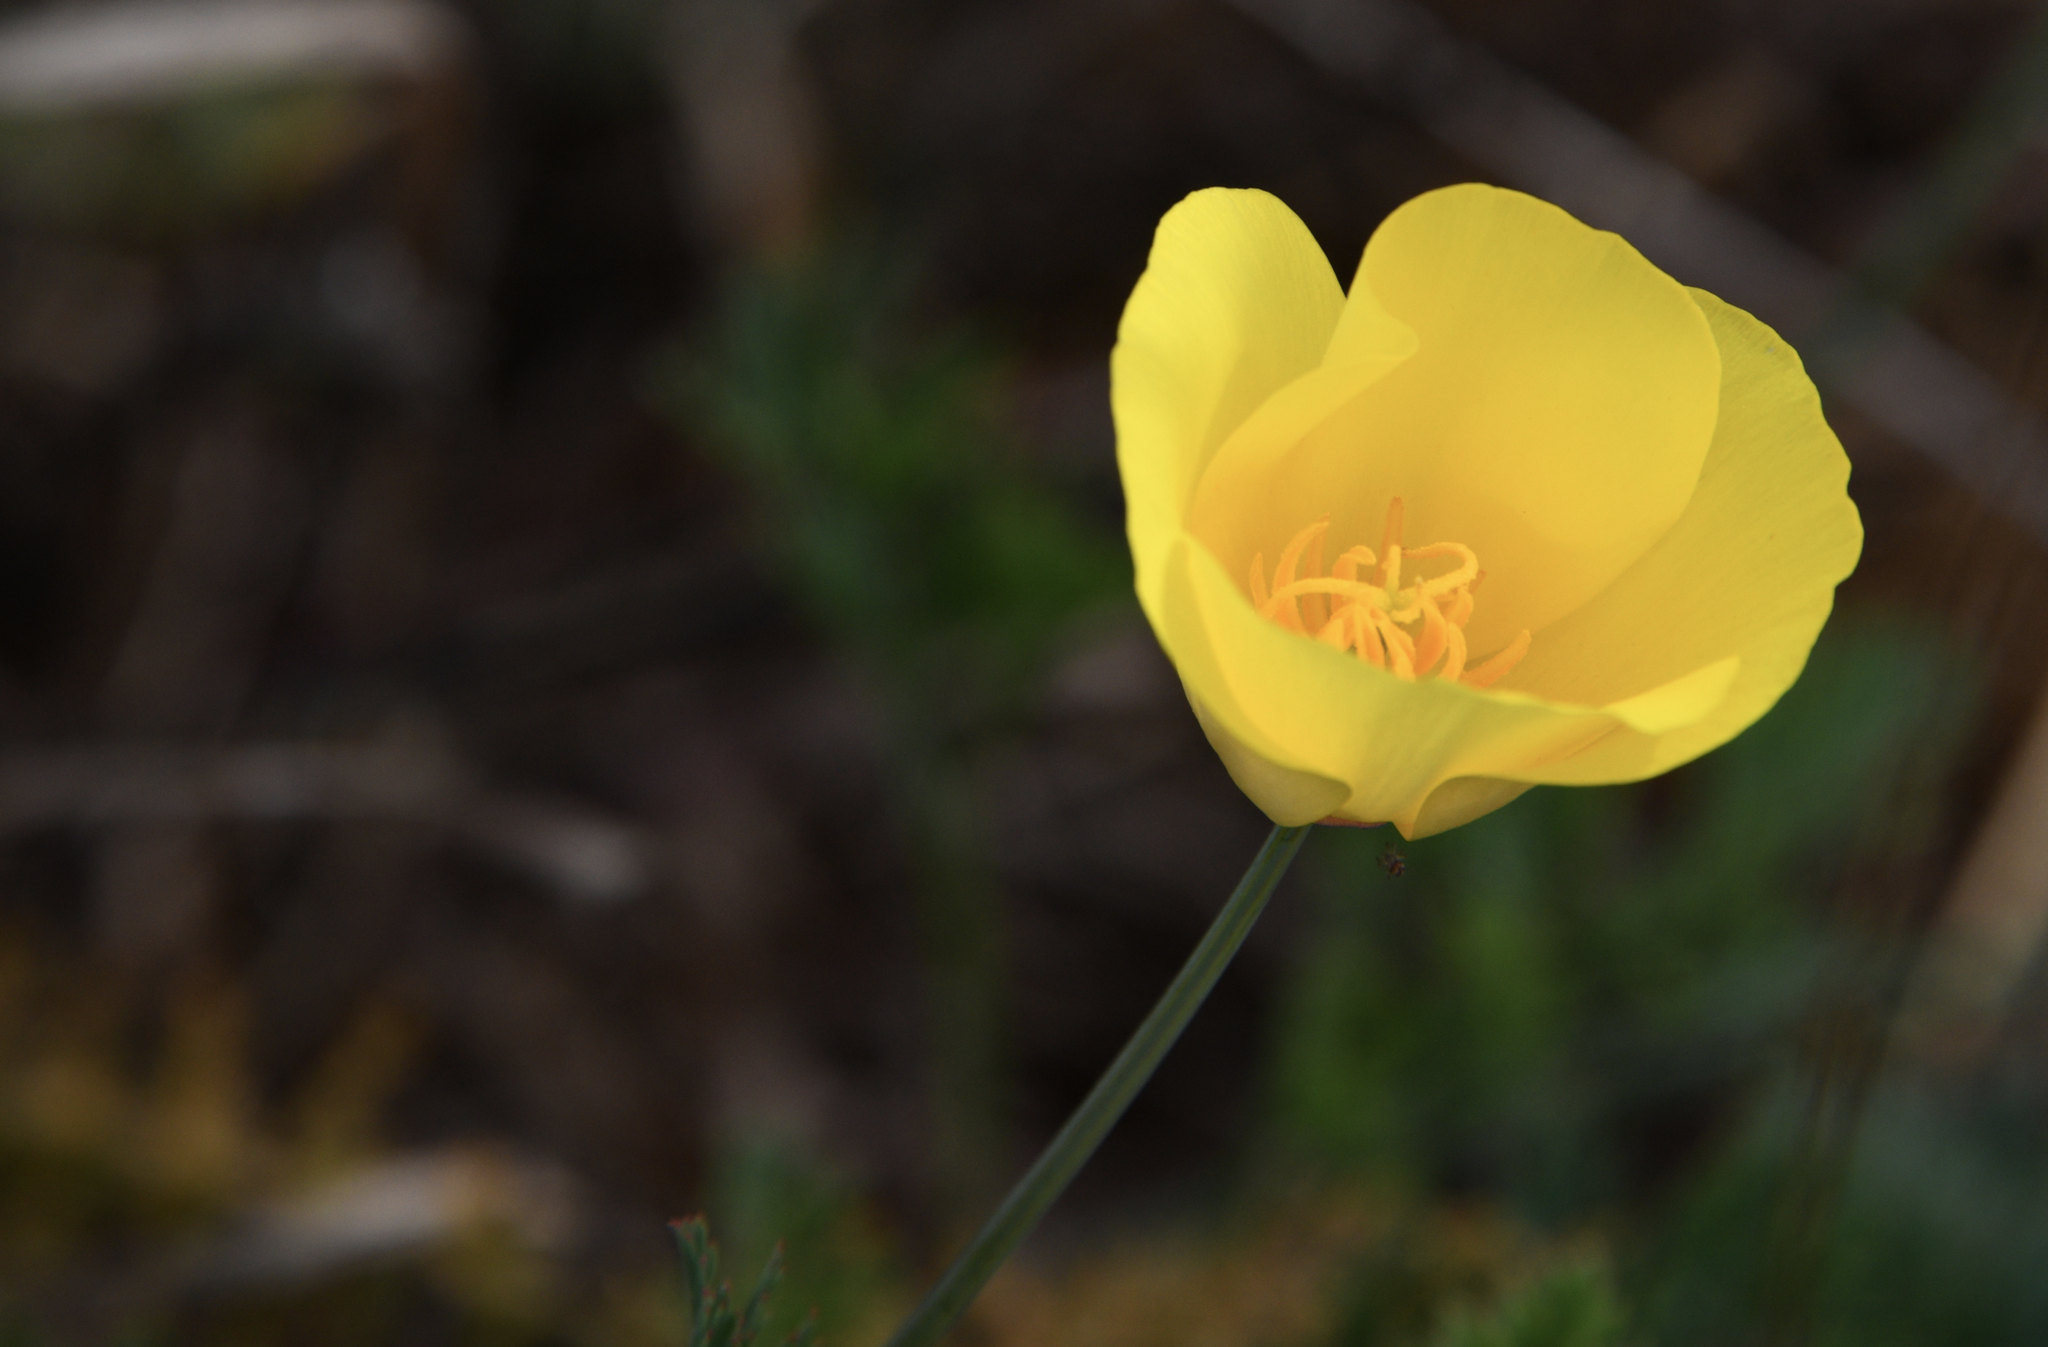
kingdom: Plantae
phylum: Tracheophyta
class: Magnoliopsida
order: Ranunculales
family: Papaveraceae
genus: Eschscholzia
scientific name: Eschscholzia californica
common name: California poppy
